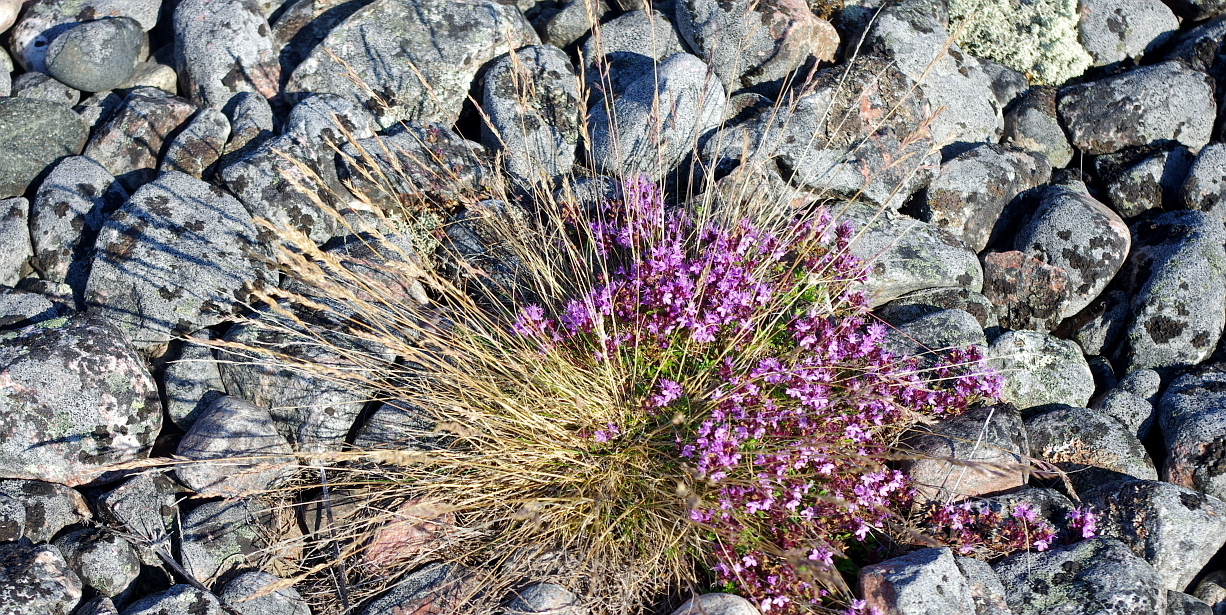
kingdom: Plantae
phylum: Tracheophyta
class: Liliopsida
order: Poales
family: Poaceae
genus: Festuca
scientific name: Festuca ovina
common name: Sheep fescue
